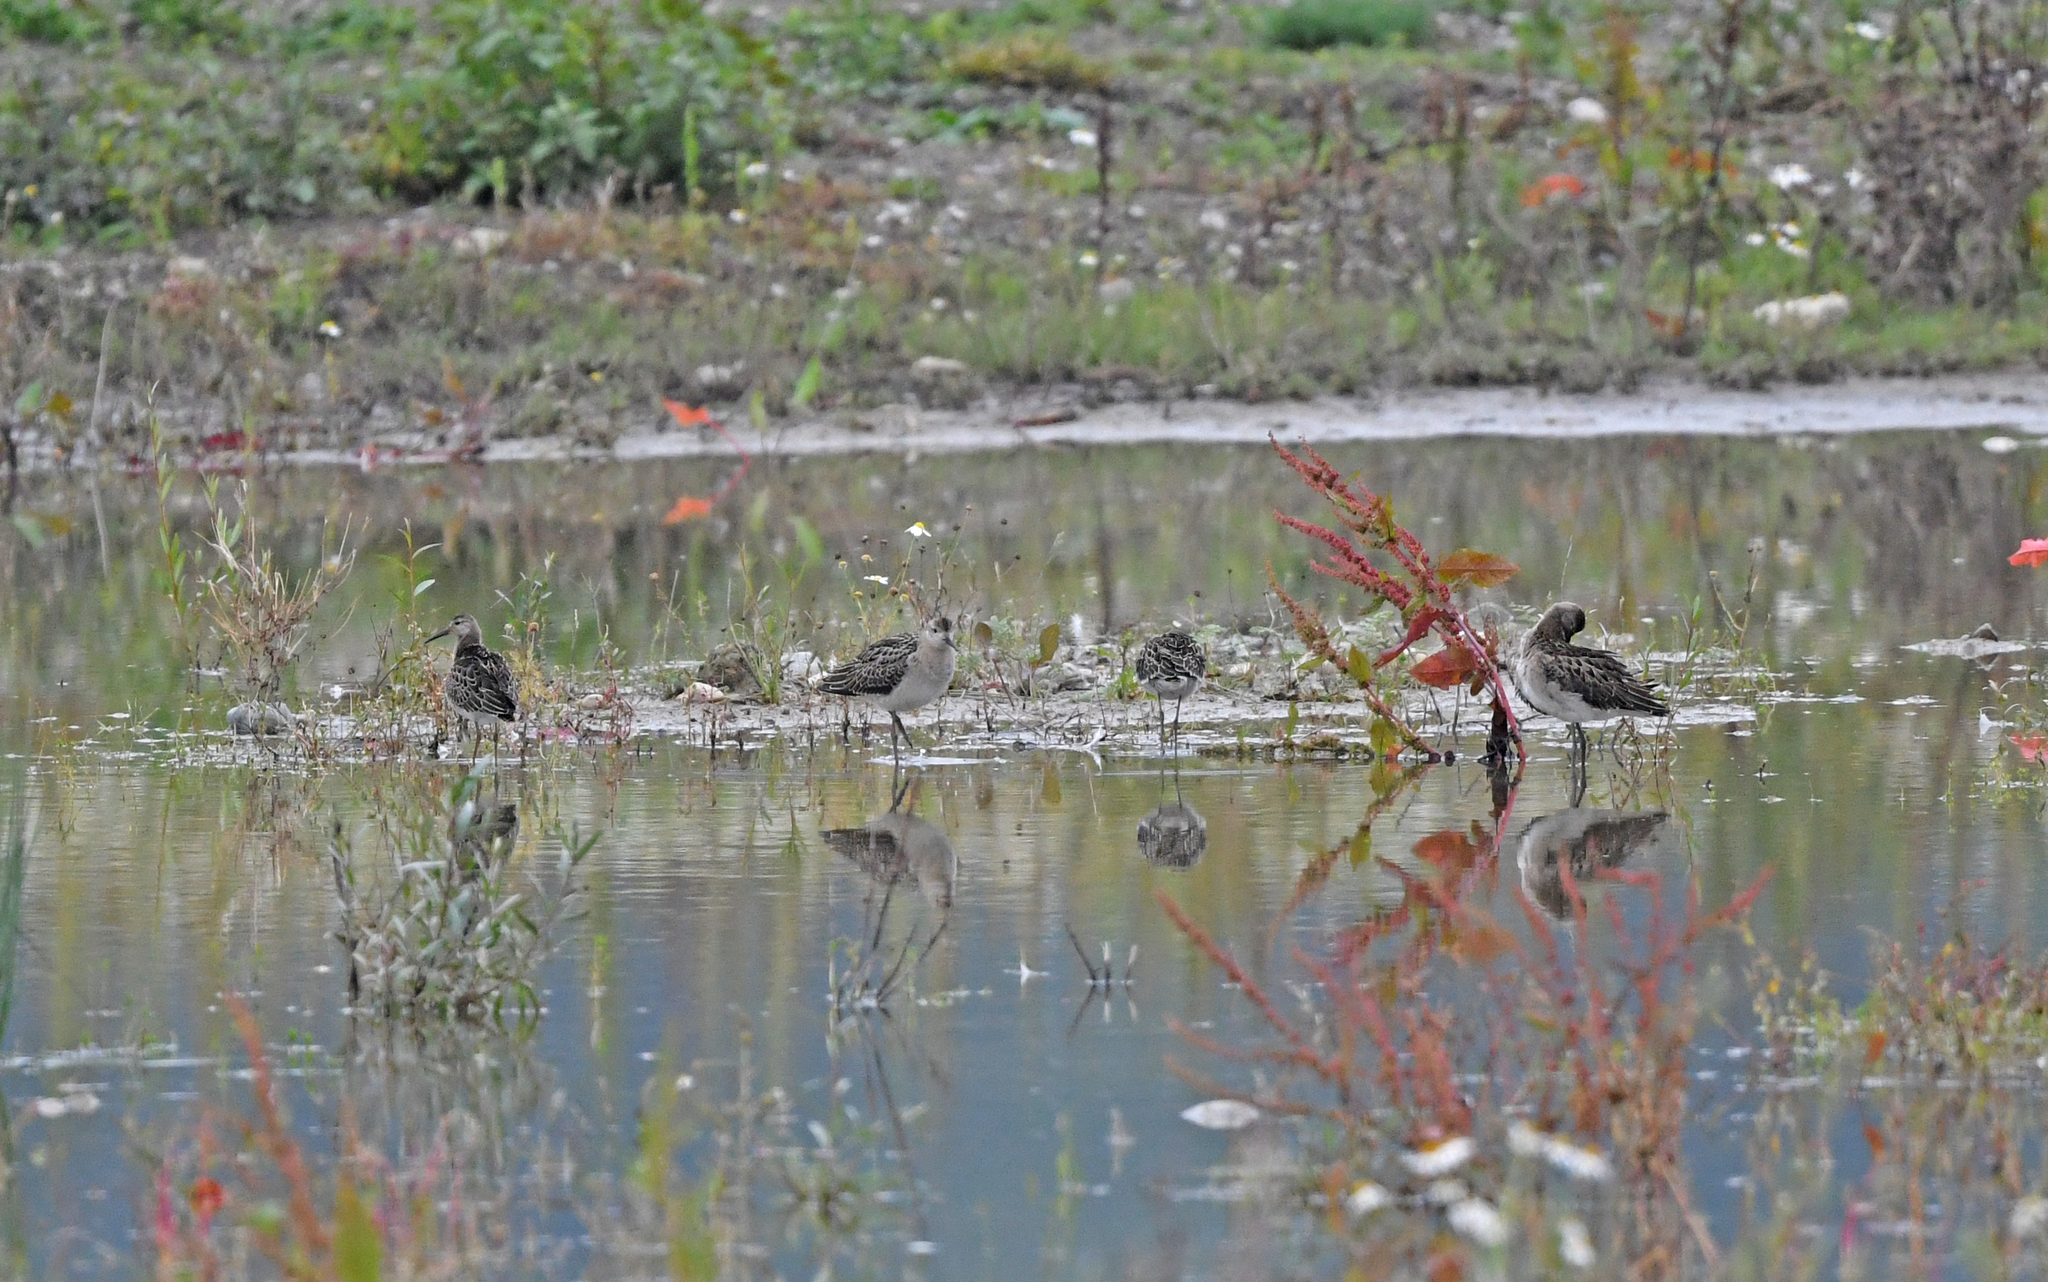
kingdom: Animalia
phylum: Chordata
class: Aves
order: Charadriiformes
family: Scolopacidae
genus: Calidris
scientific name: Calidris pugnax
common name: Ruff
